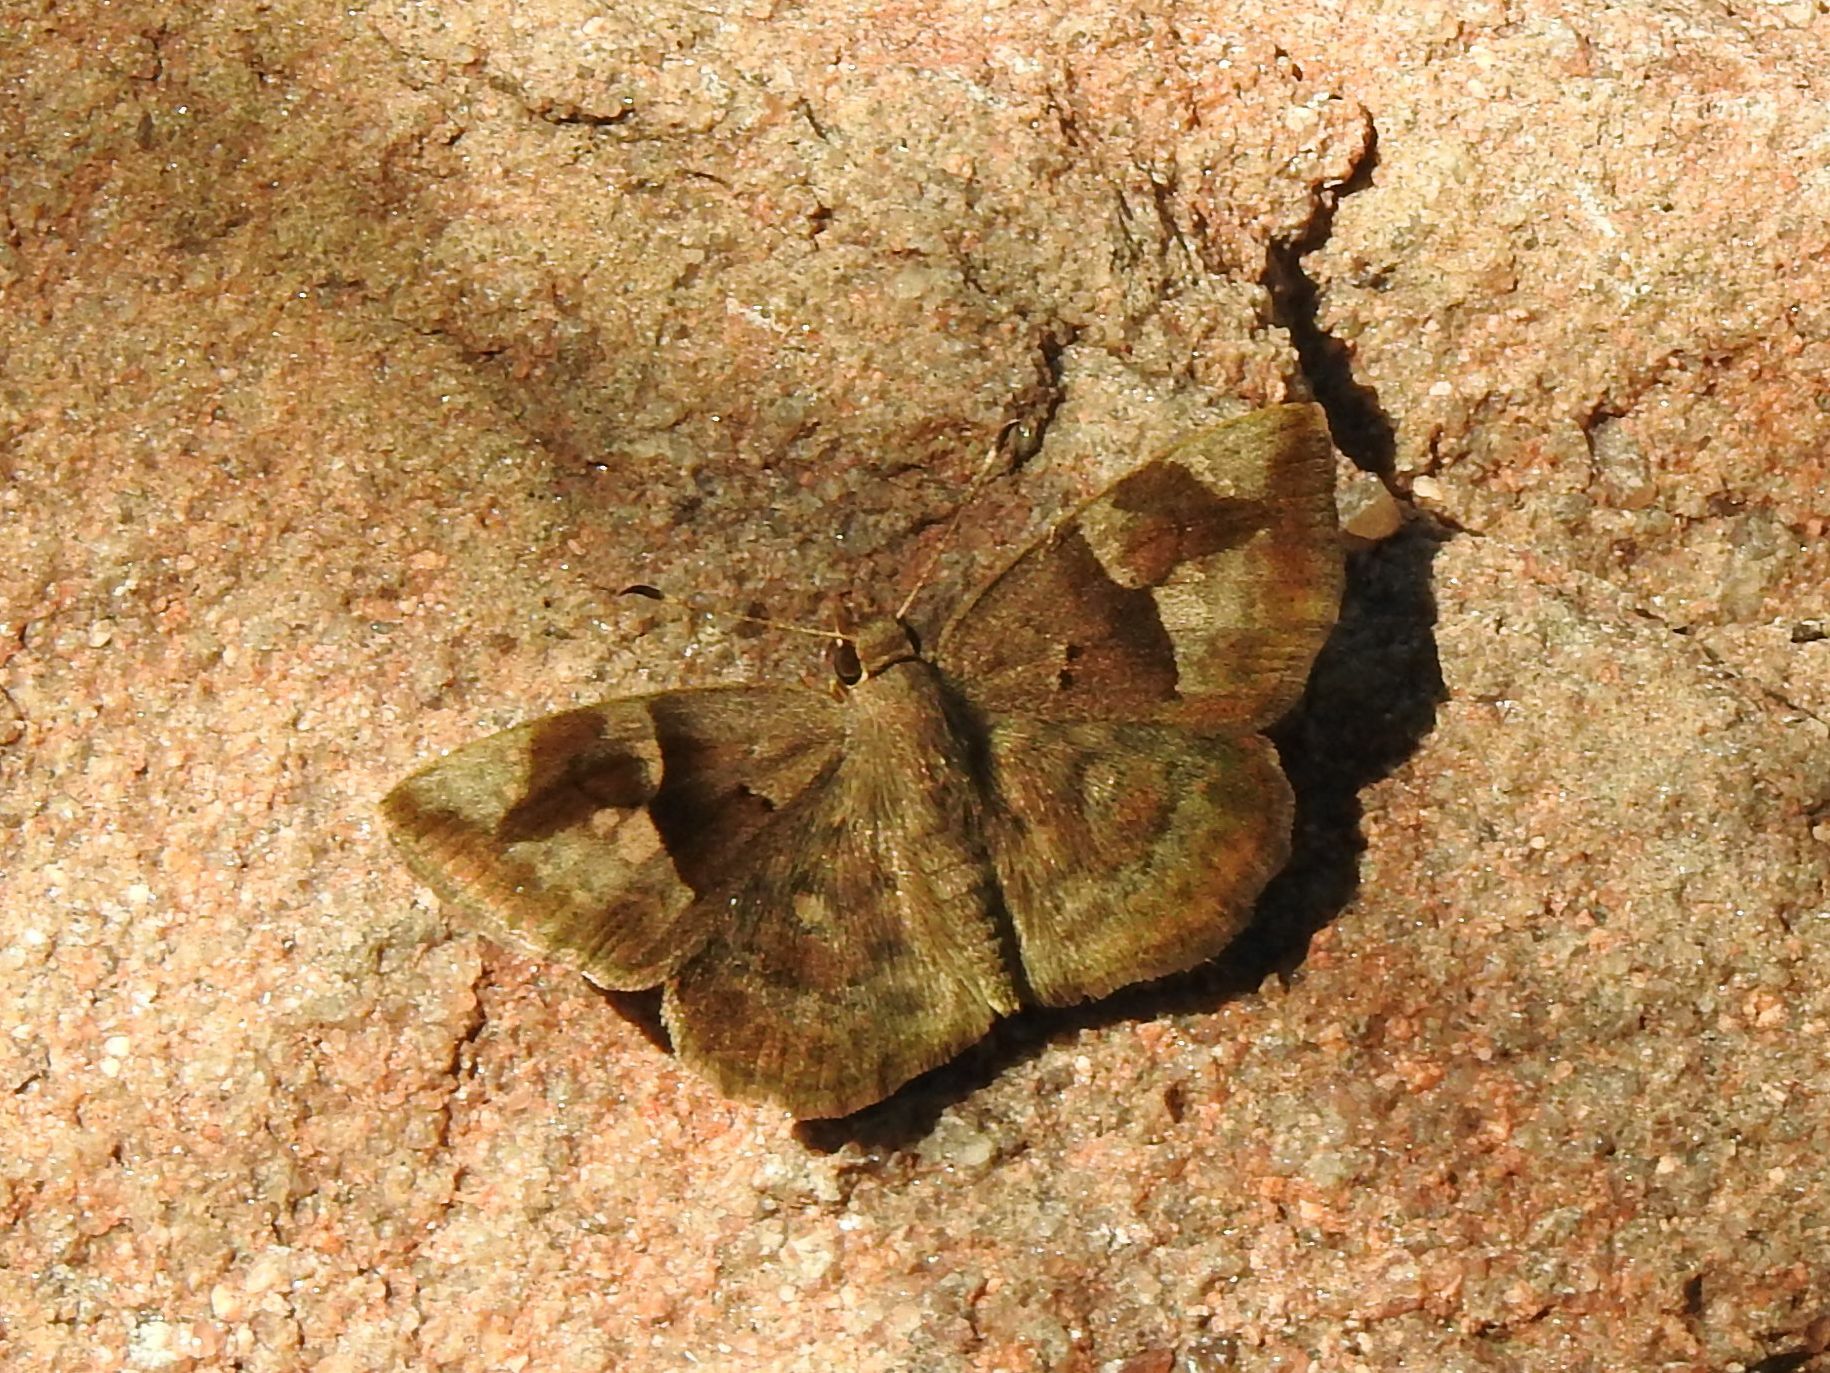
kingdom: Animalia
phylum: Arthropoda
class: Insecta
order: Lepidoptera
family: Hesperiidae
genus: Sarangesa
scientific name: Sarangesa motozi
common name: Forest elfin
